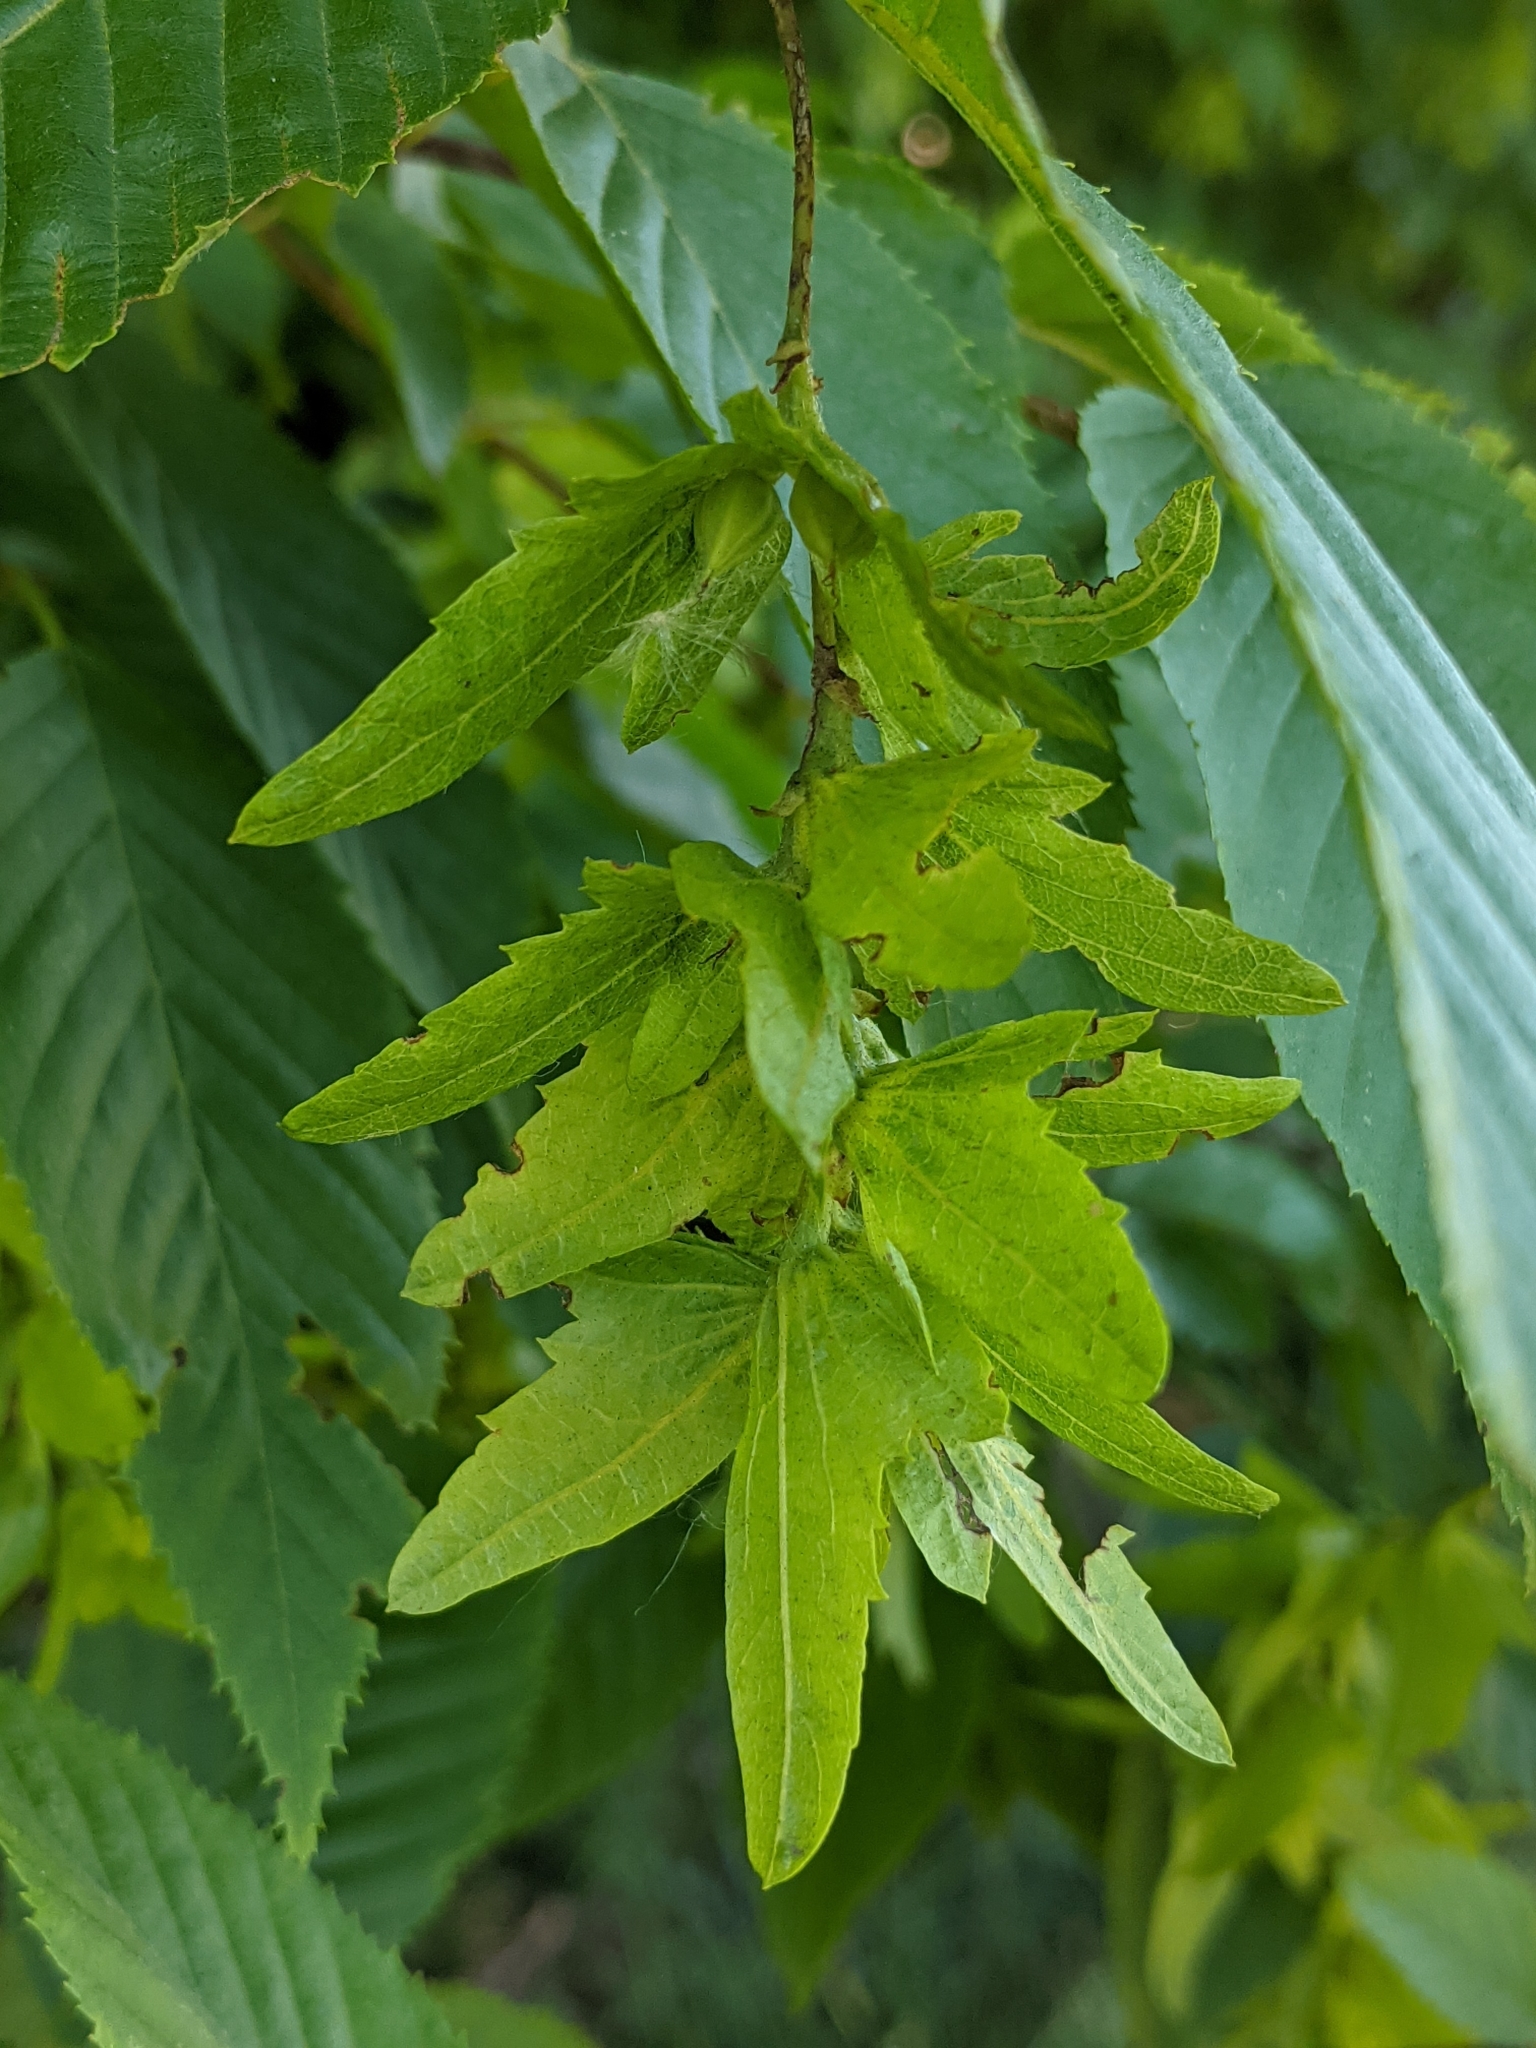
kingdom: Plantae
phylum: Tracheophyta
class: Magnoliopsida
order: Fagales
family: Betulaceae
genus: Carpinus
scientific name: Carpinus caroliniana
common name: American hornbeam
